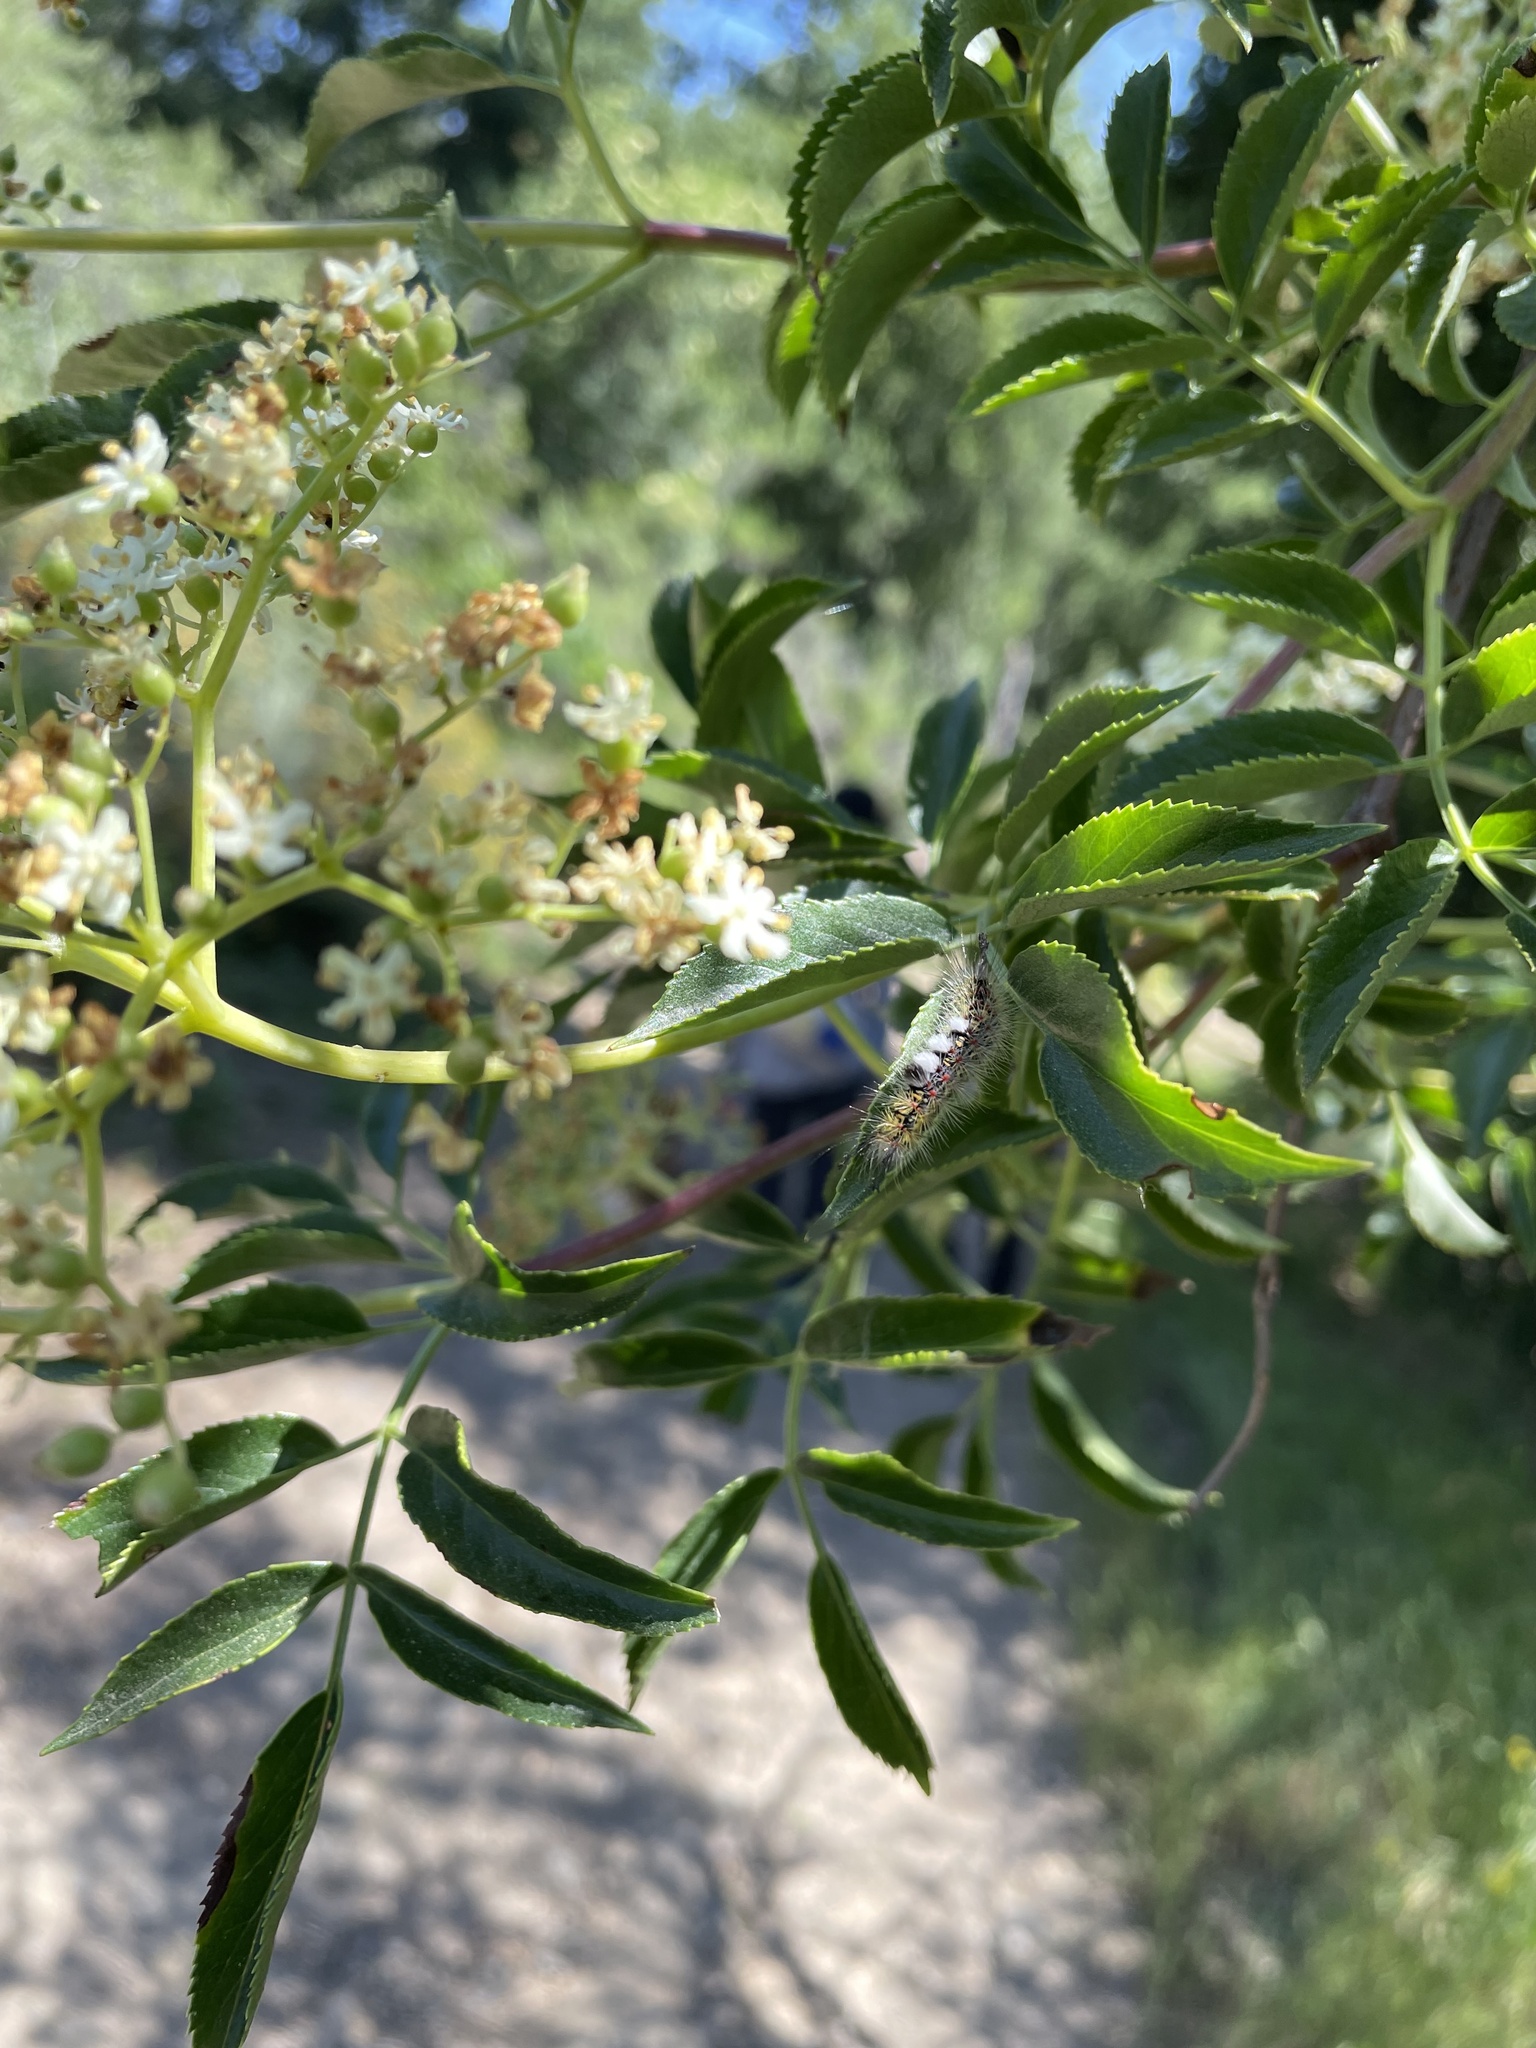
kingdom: Animalia
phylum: Arthropoda
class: Insecta
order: Lepidoptera
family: Erebidae
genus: Orgyia
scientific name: Orgyia vetusta
